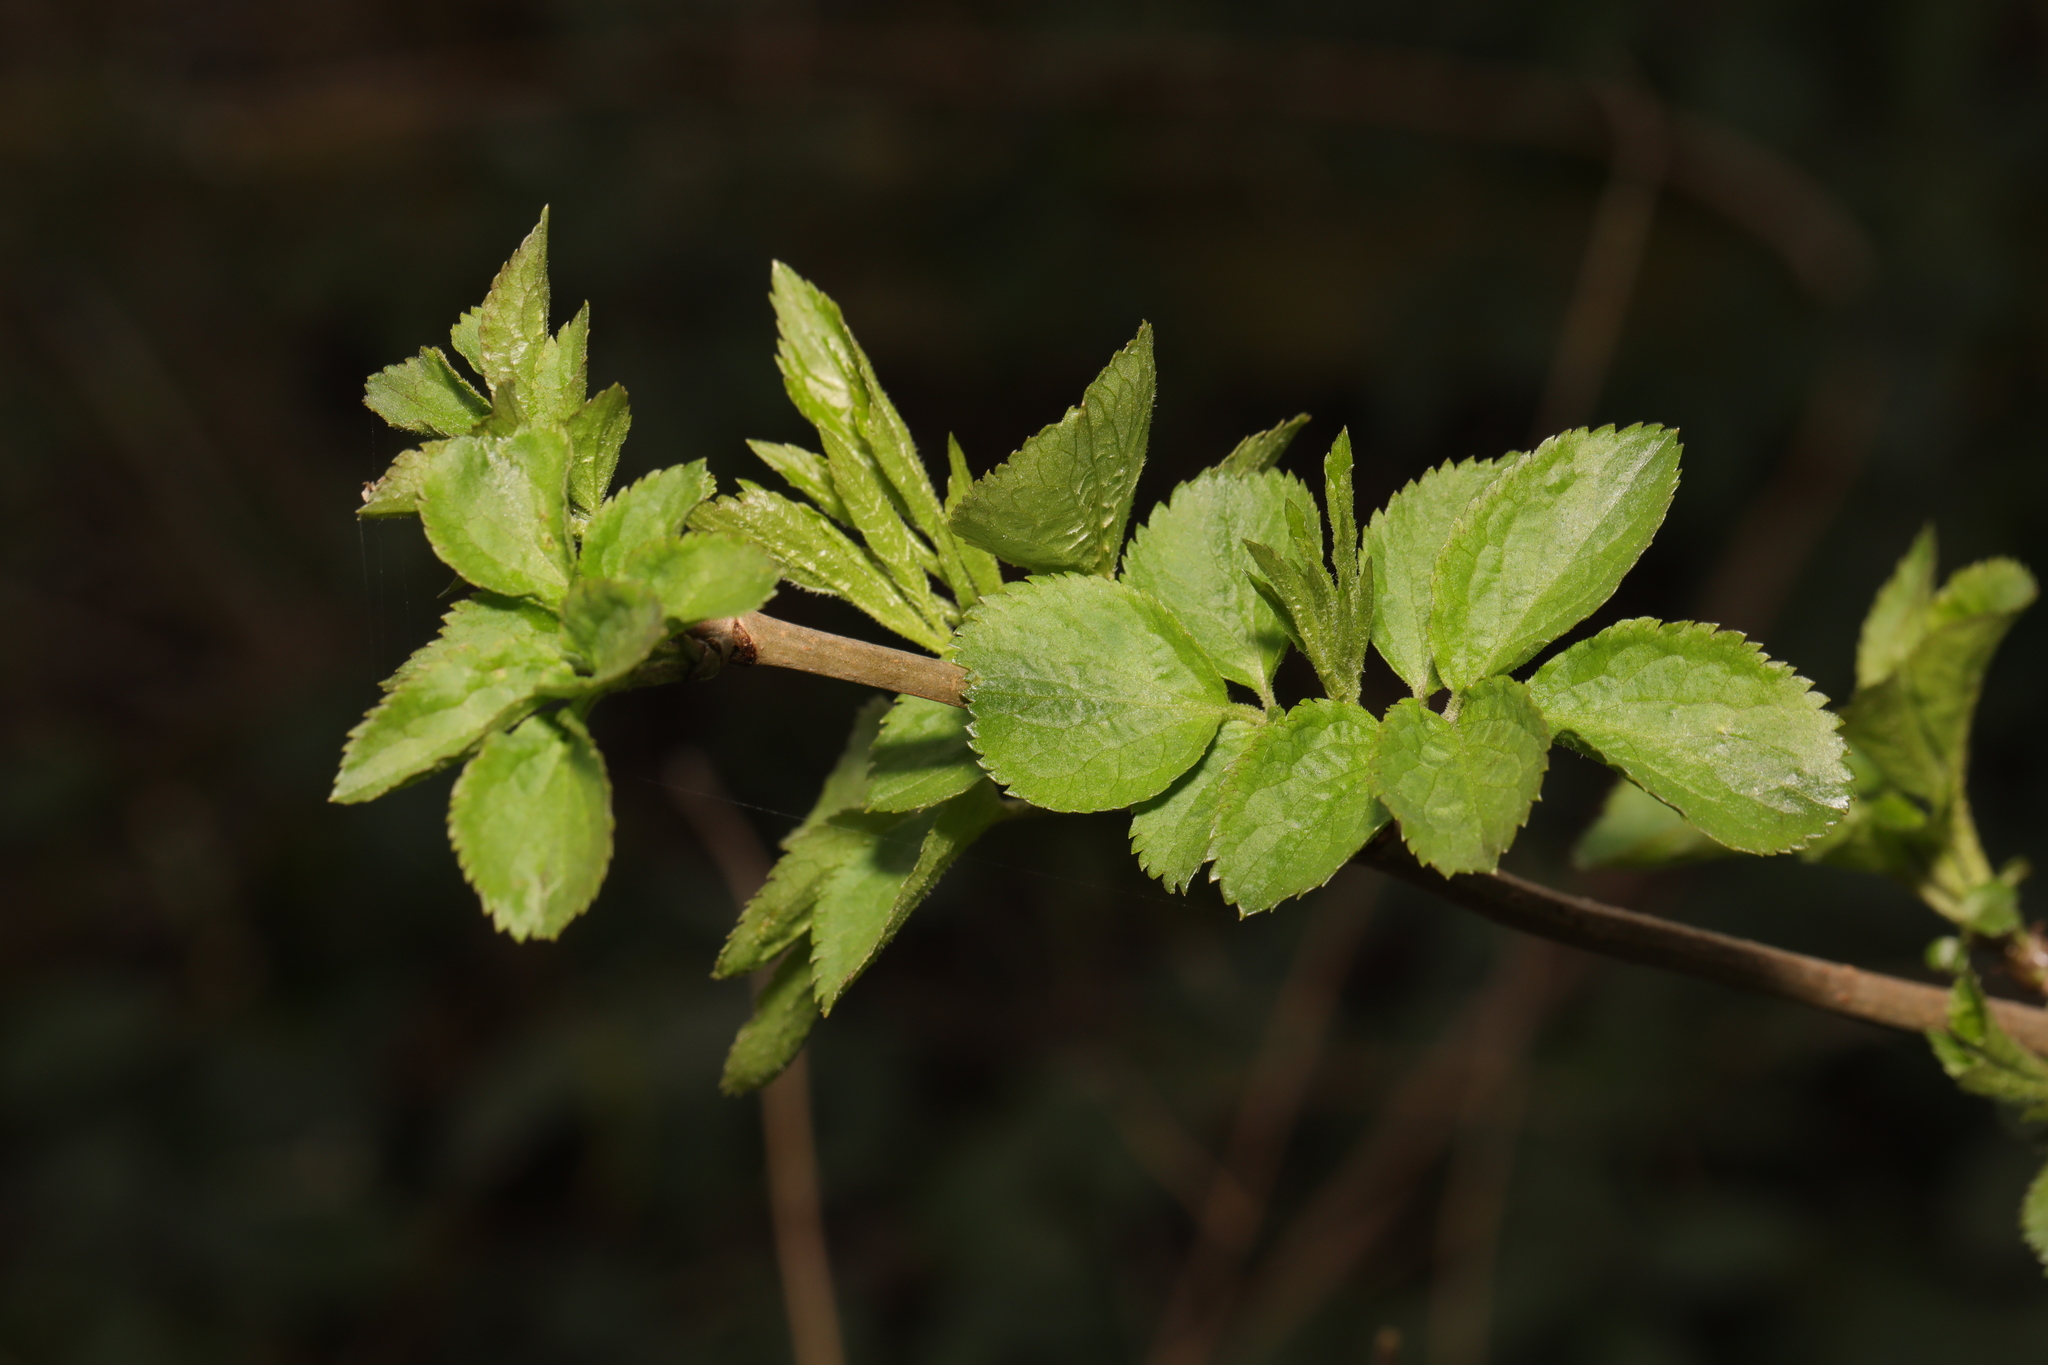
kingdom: Plantae
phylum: Tracheophyta
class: Magnoliopsida
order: Dipsacales
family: Viburnaceae
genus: Sambucus
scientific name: Sambucus nigra
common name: Elder
